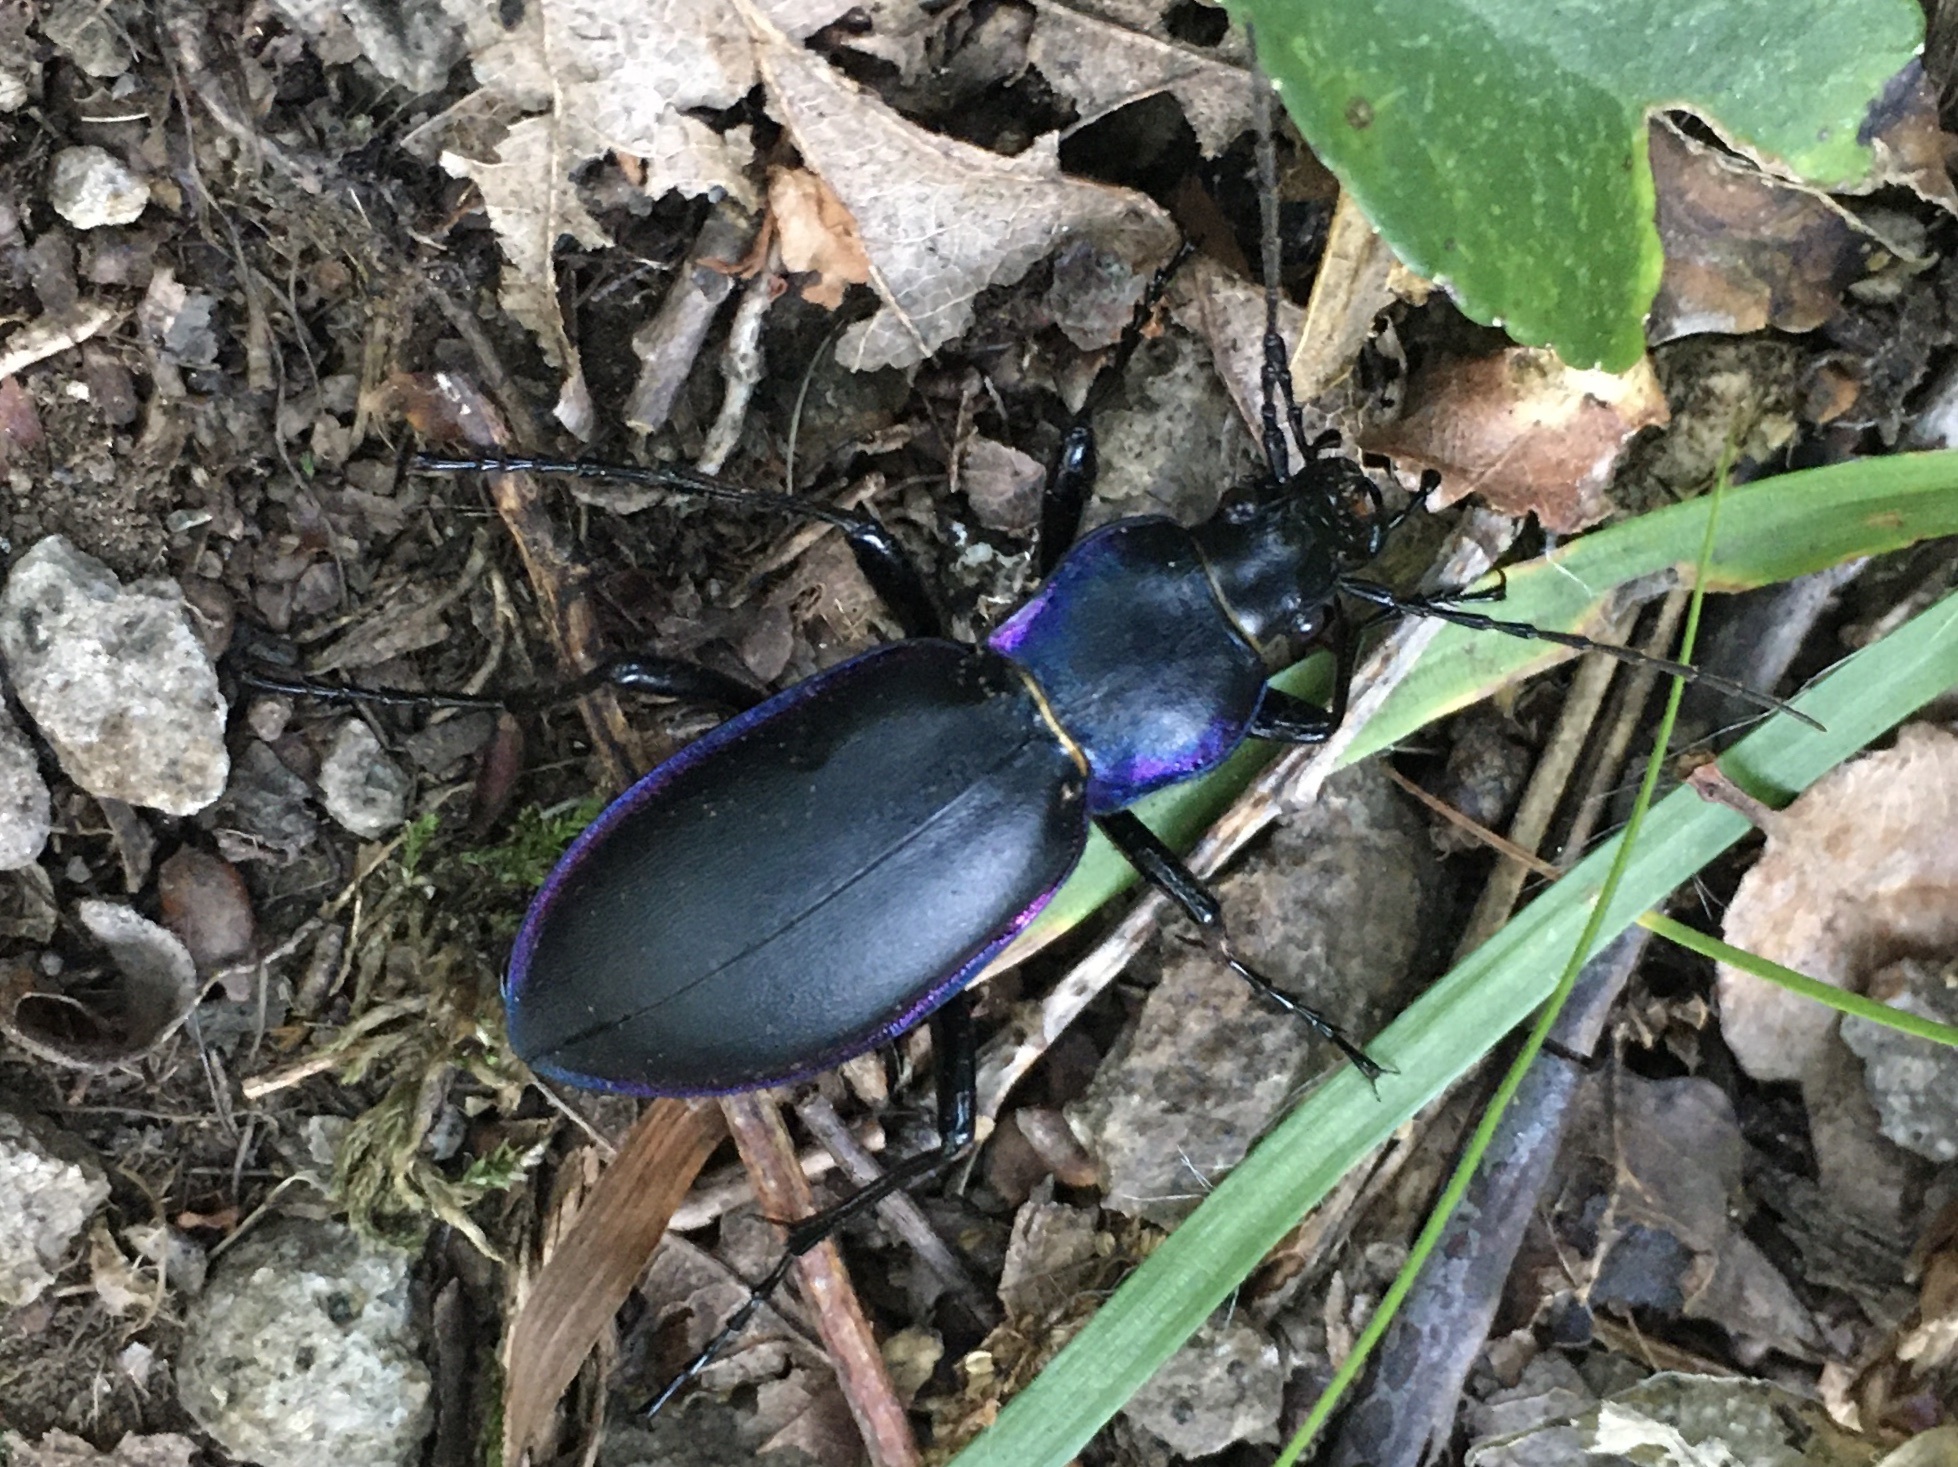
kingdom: Animalia
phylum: Arthropoda
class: Insecta
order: Coleoptera
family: Carabidae
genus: Carabus
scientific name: Carabus violaceus
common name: Violet ground beetle
